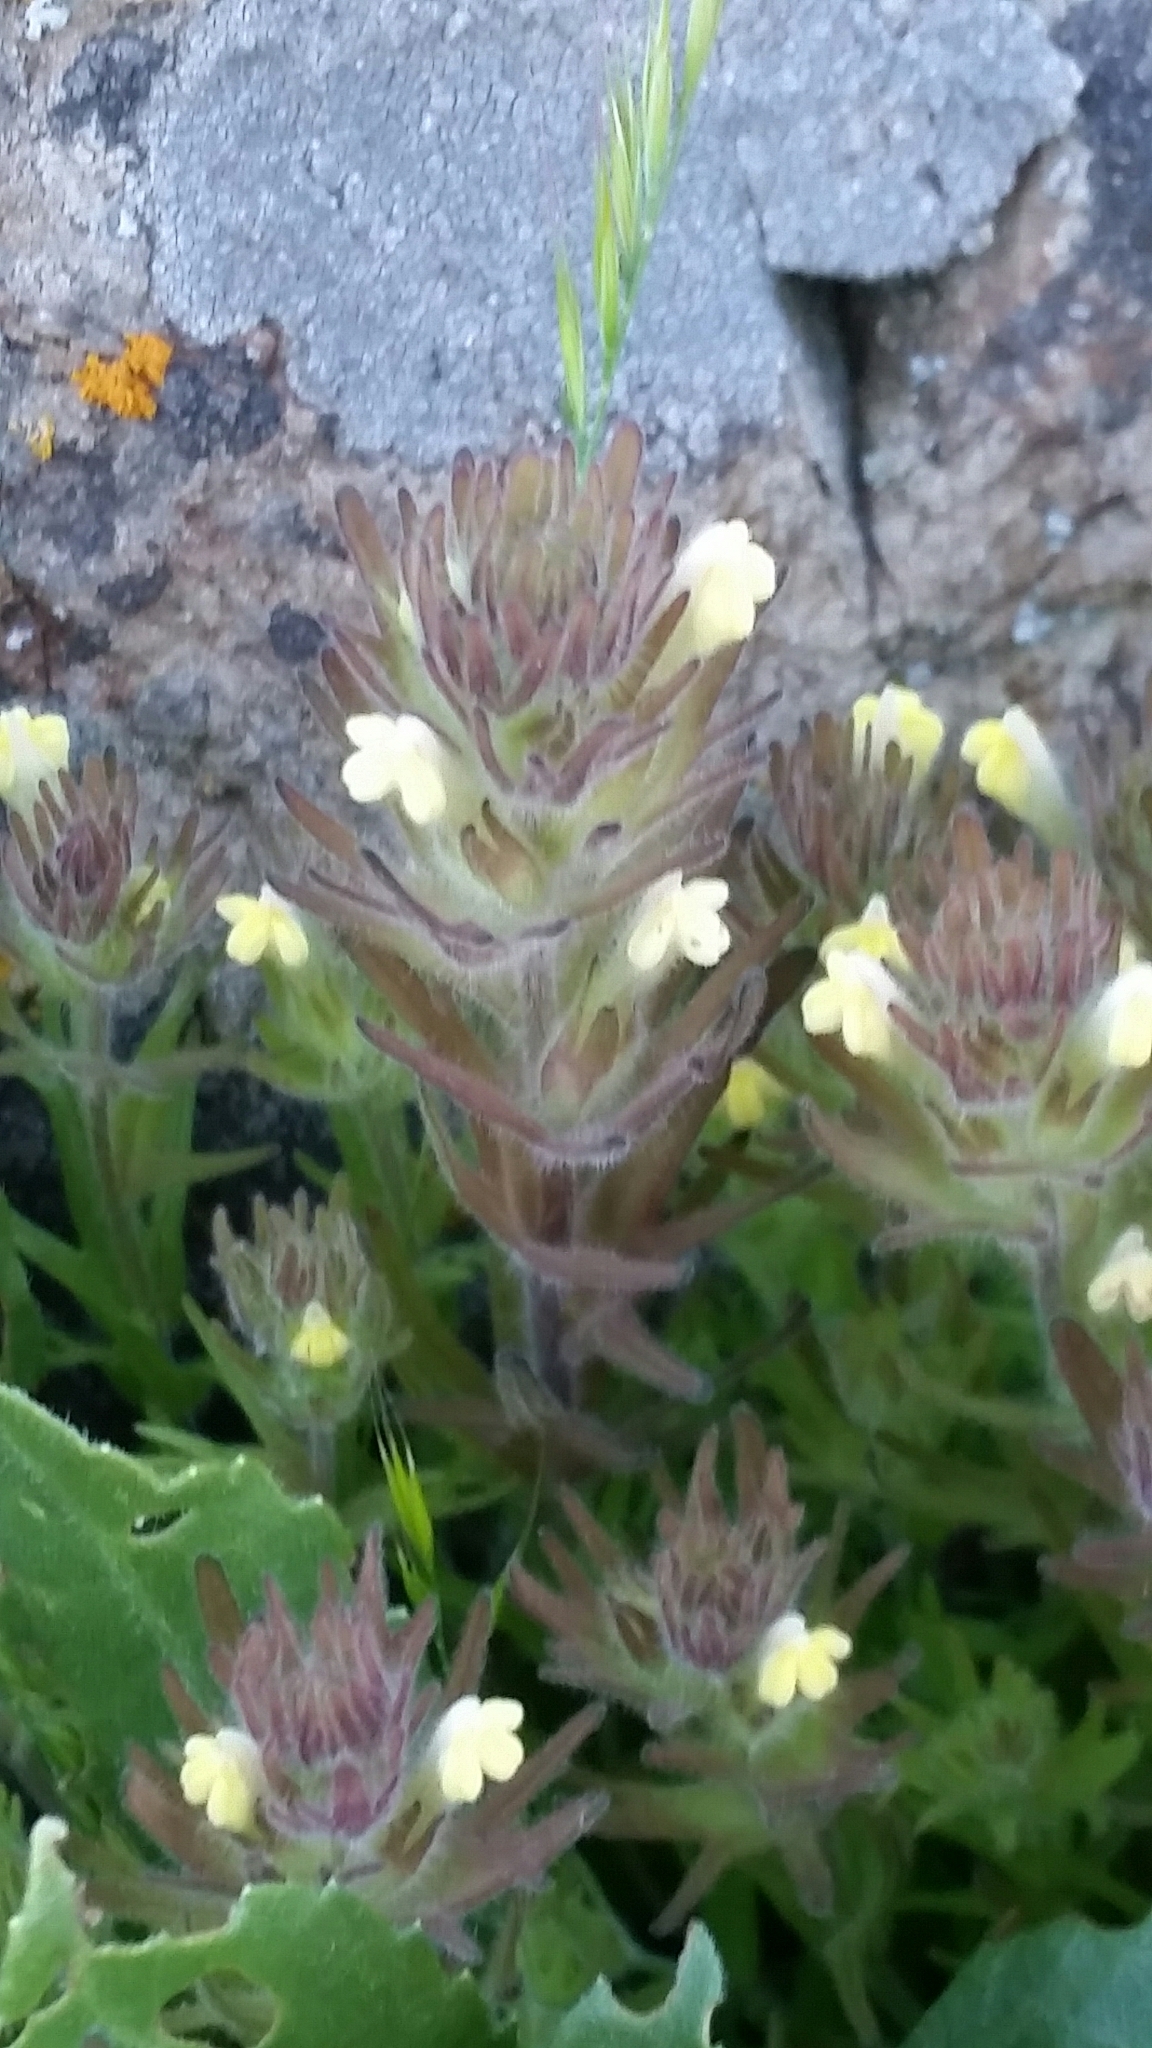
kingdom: Plantae
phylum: Tracheophyta
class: Magnoliopsida
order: Lamiales
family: Orobanchaceae
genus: Castilleja
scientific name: Castilleja victoriae
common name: Victoria paintbrush
